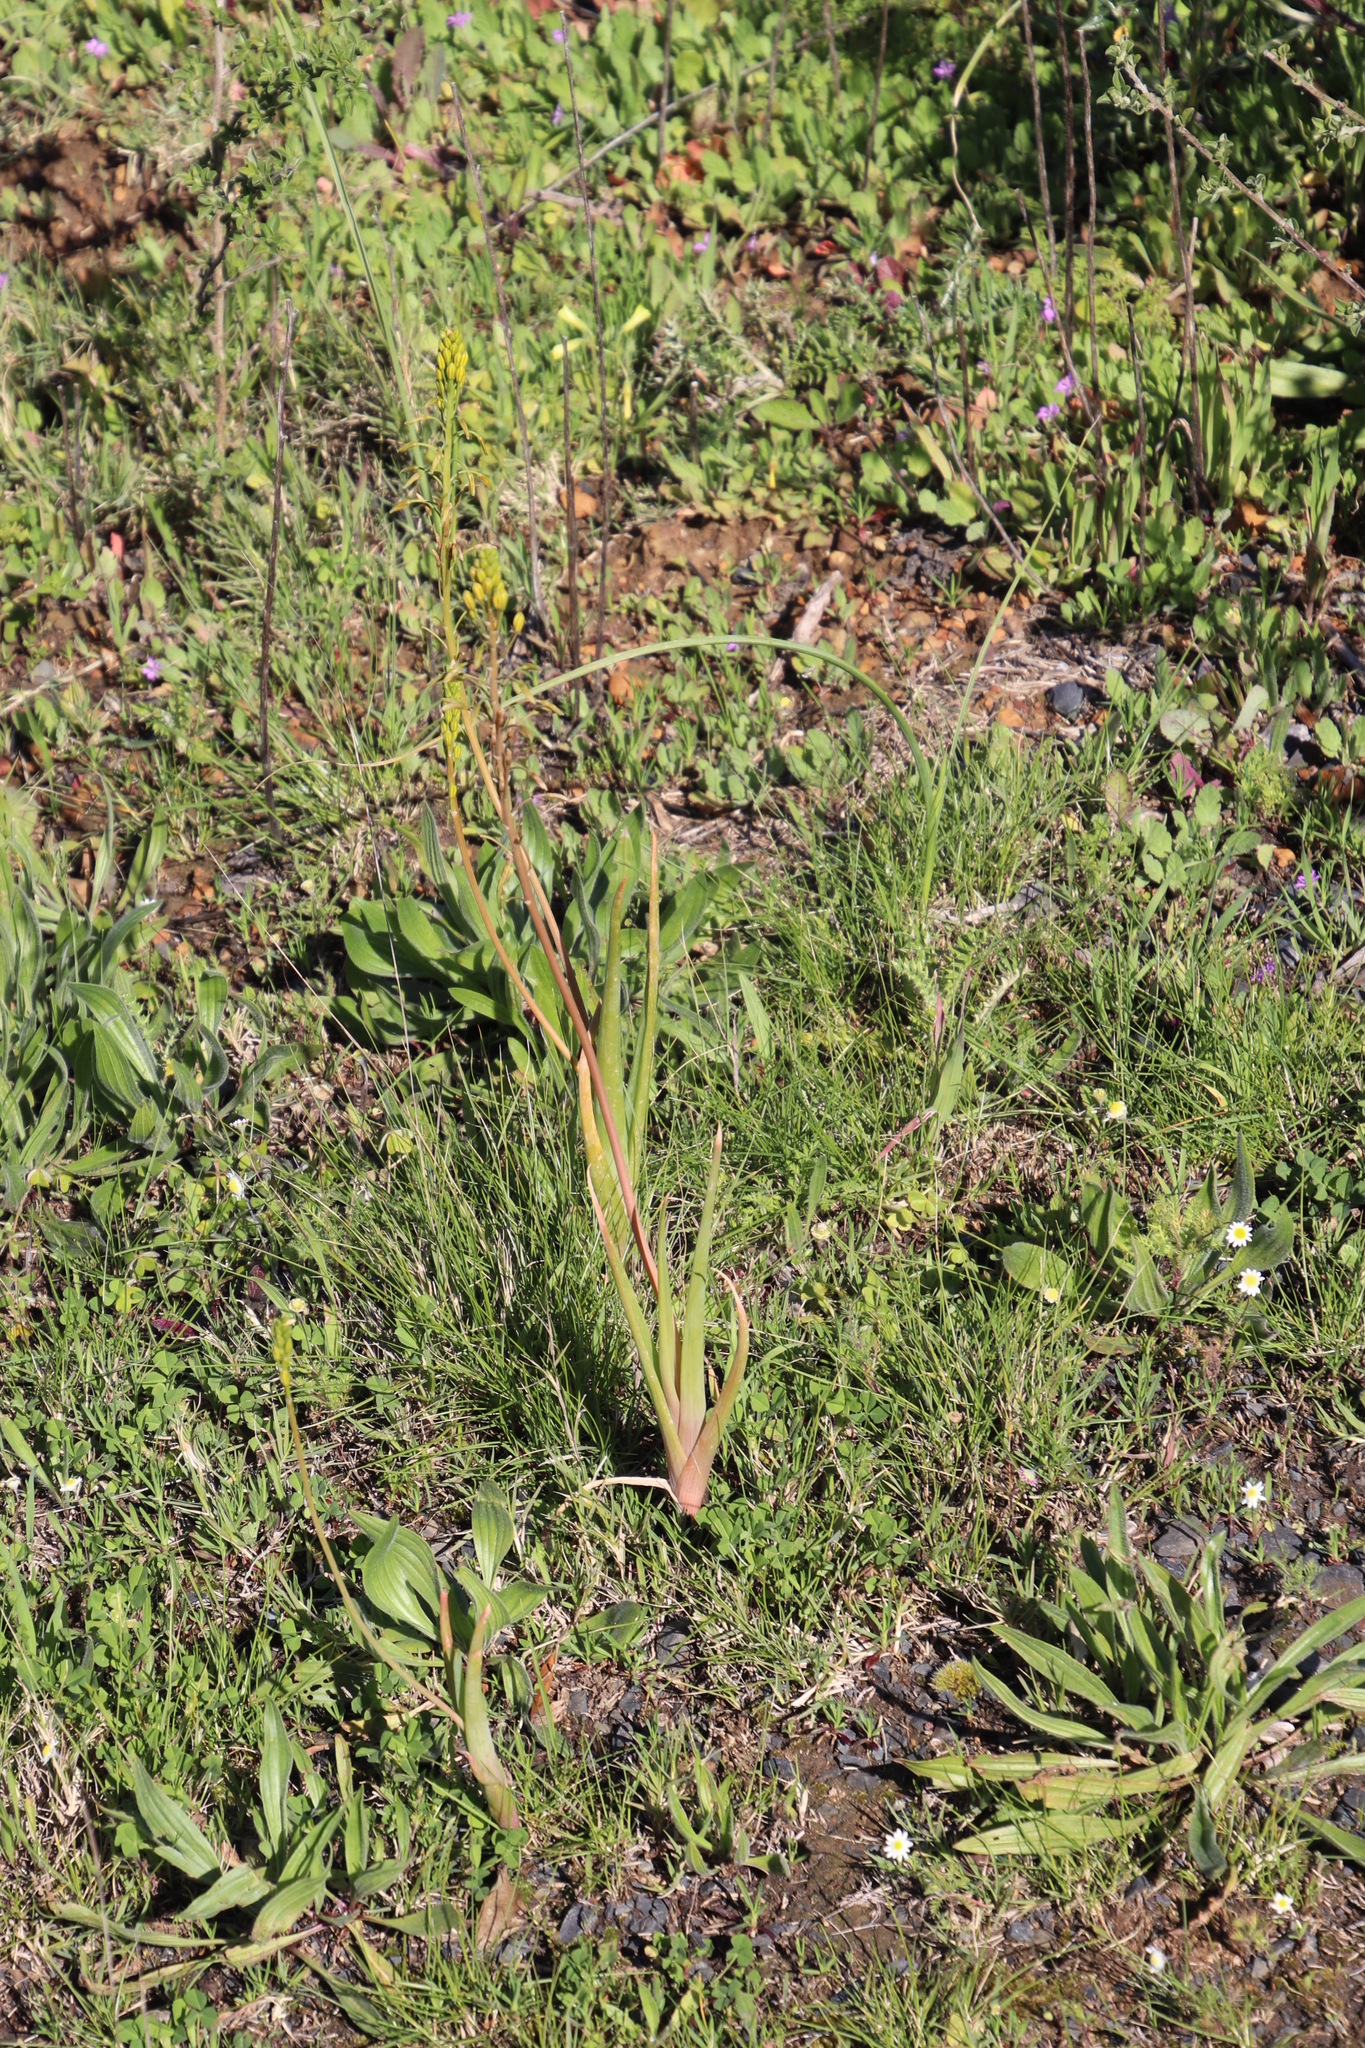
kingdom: Plantae
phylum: Tracheophyta
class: Liliopsida
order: Asparagales
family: Asphodelaceae
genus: Bulbine
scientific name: Bulbine praemorsa
